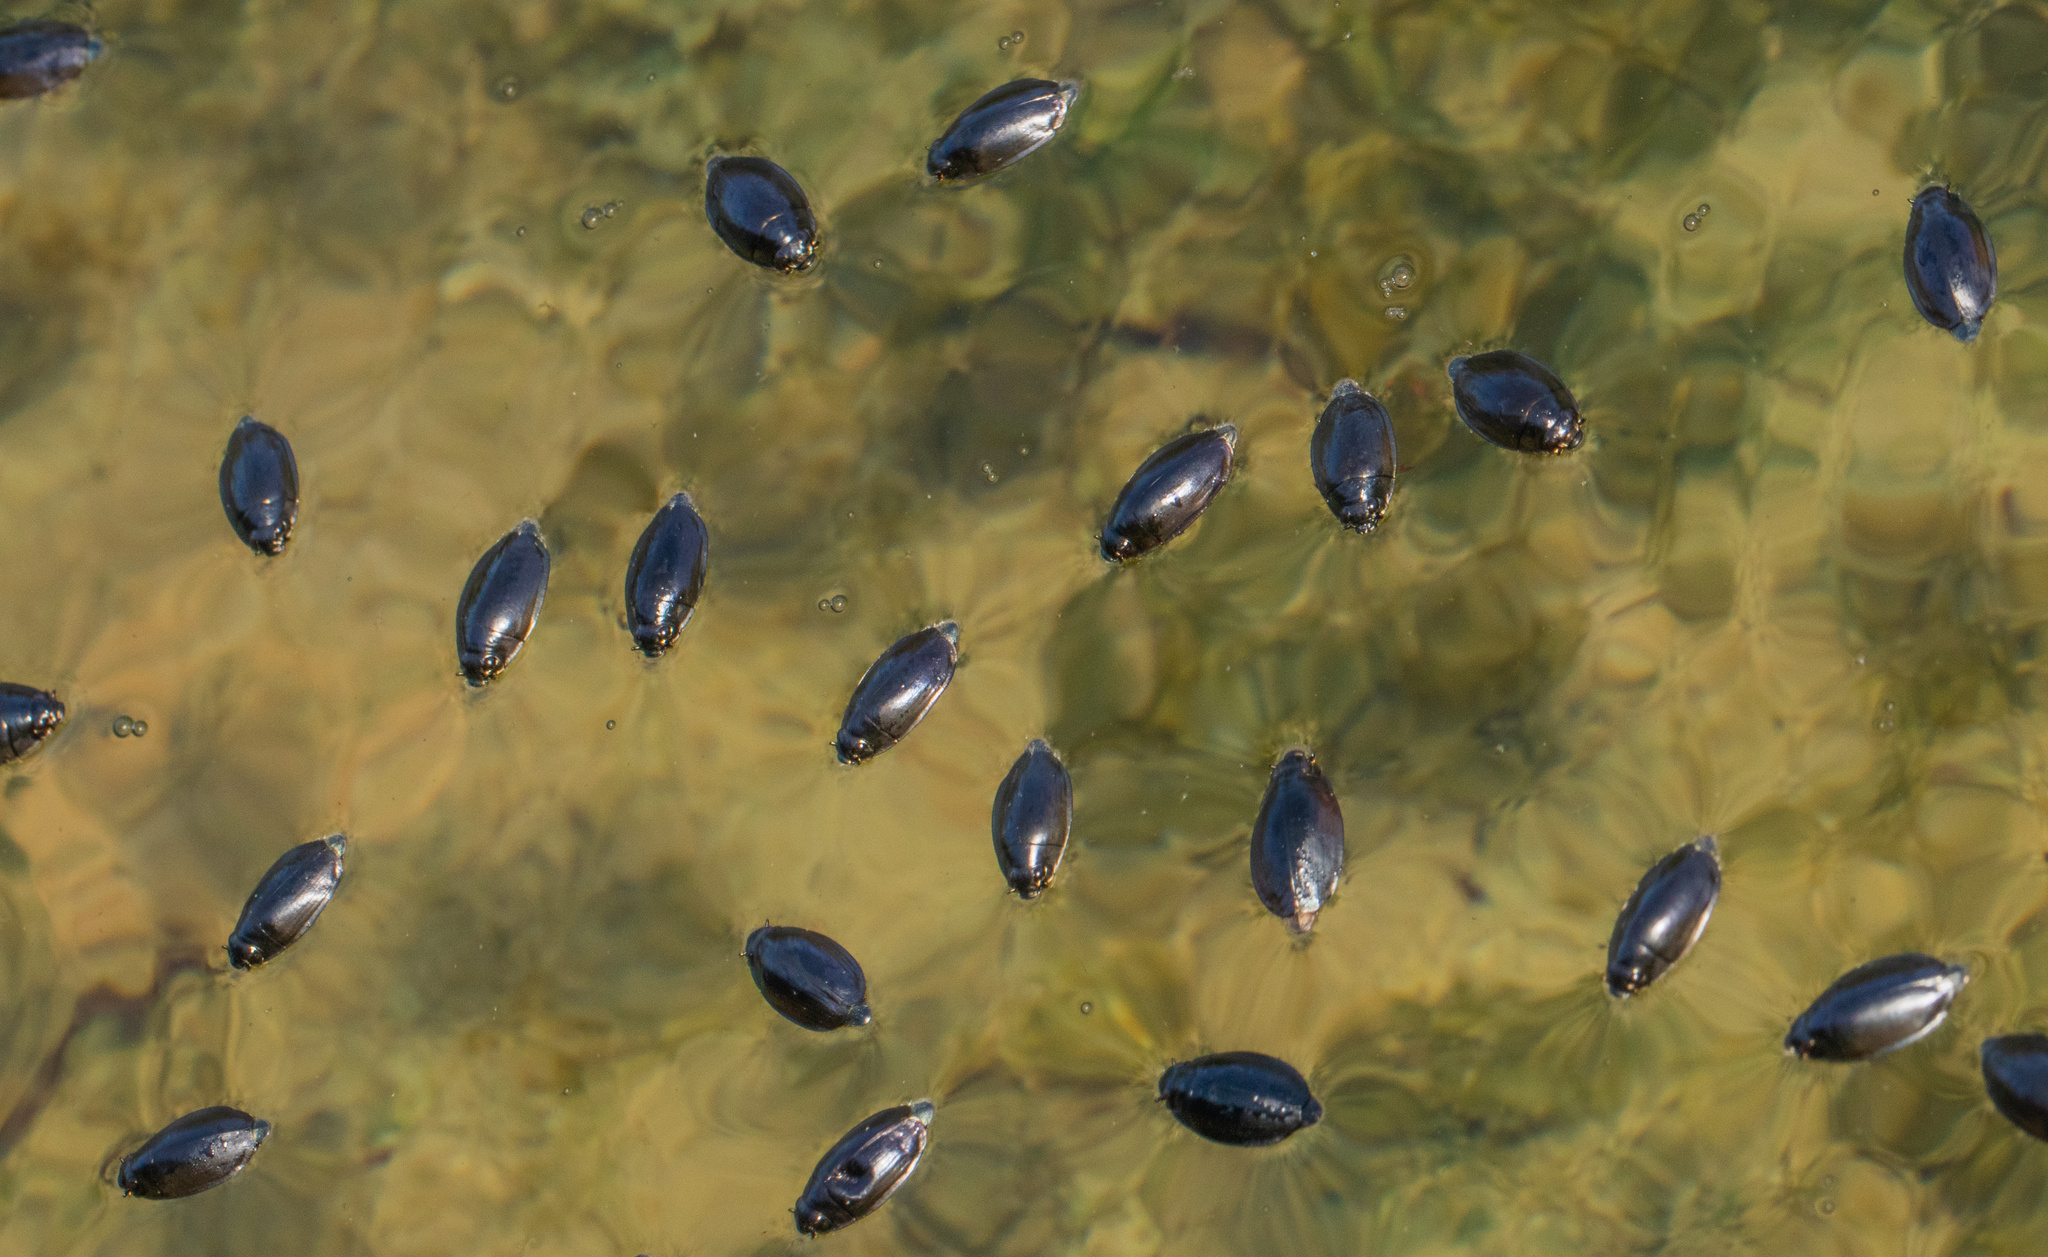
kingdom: Animalia
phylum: Arthropoda
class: Insecta
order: Coleoptera
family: Gyrinidae
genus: Dineutus
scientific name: Dineutus
